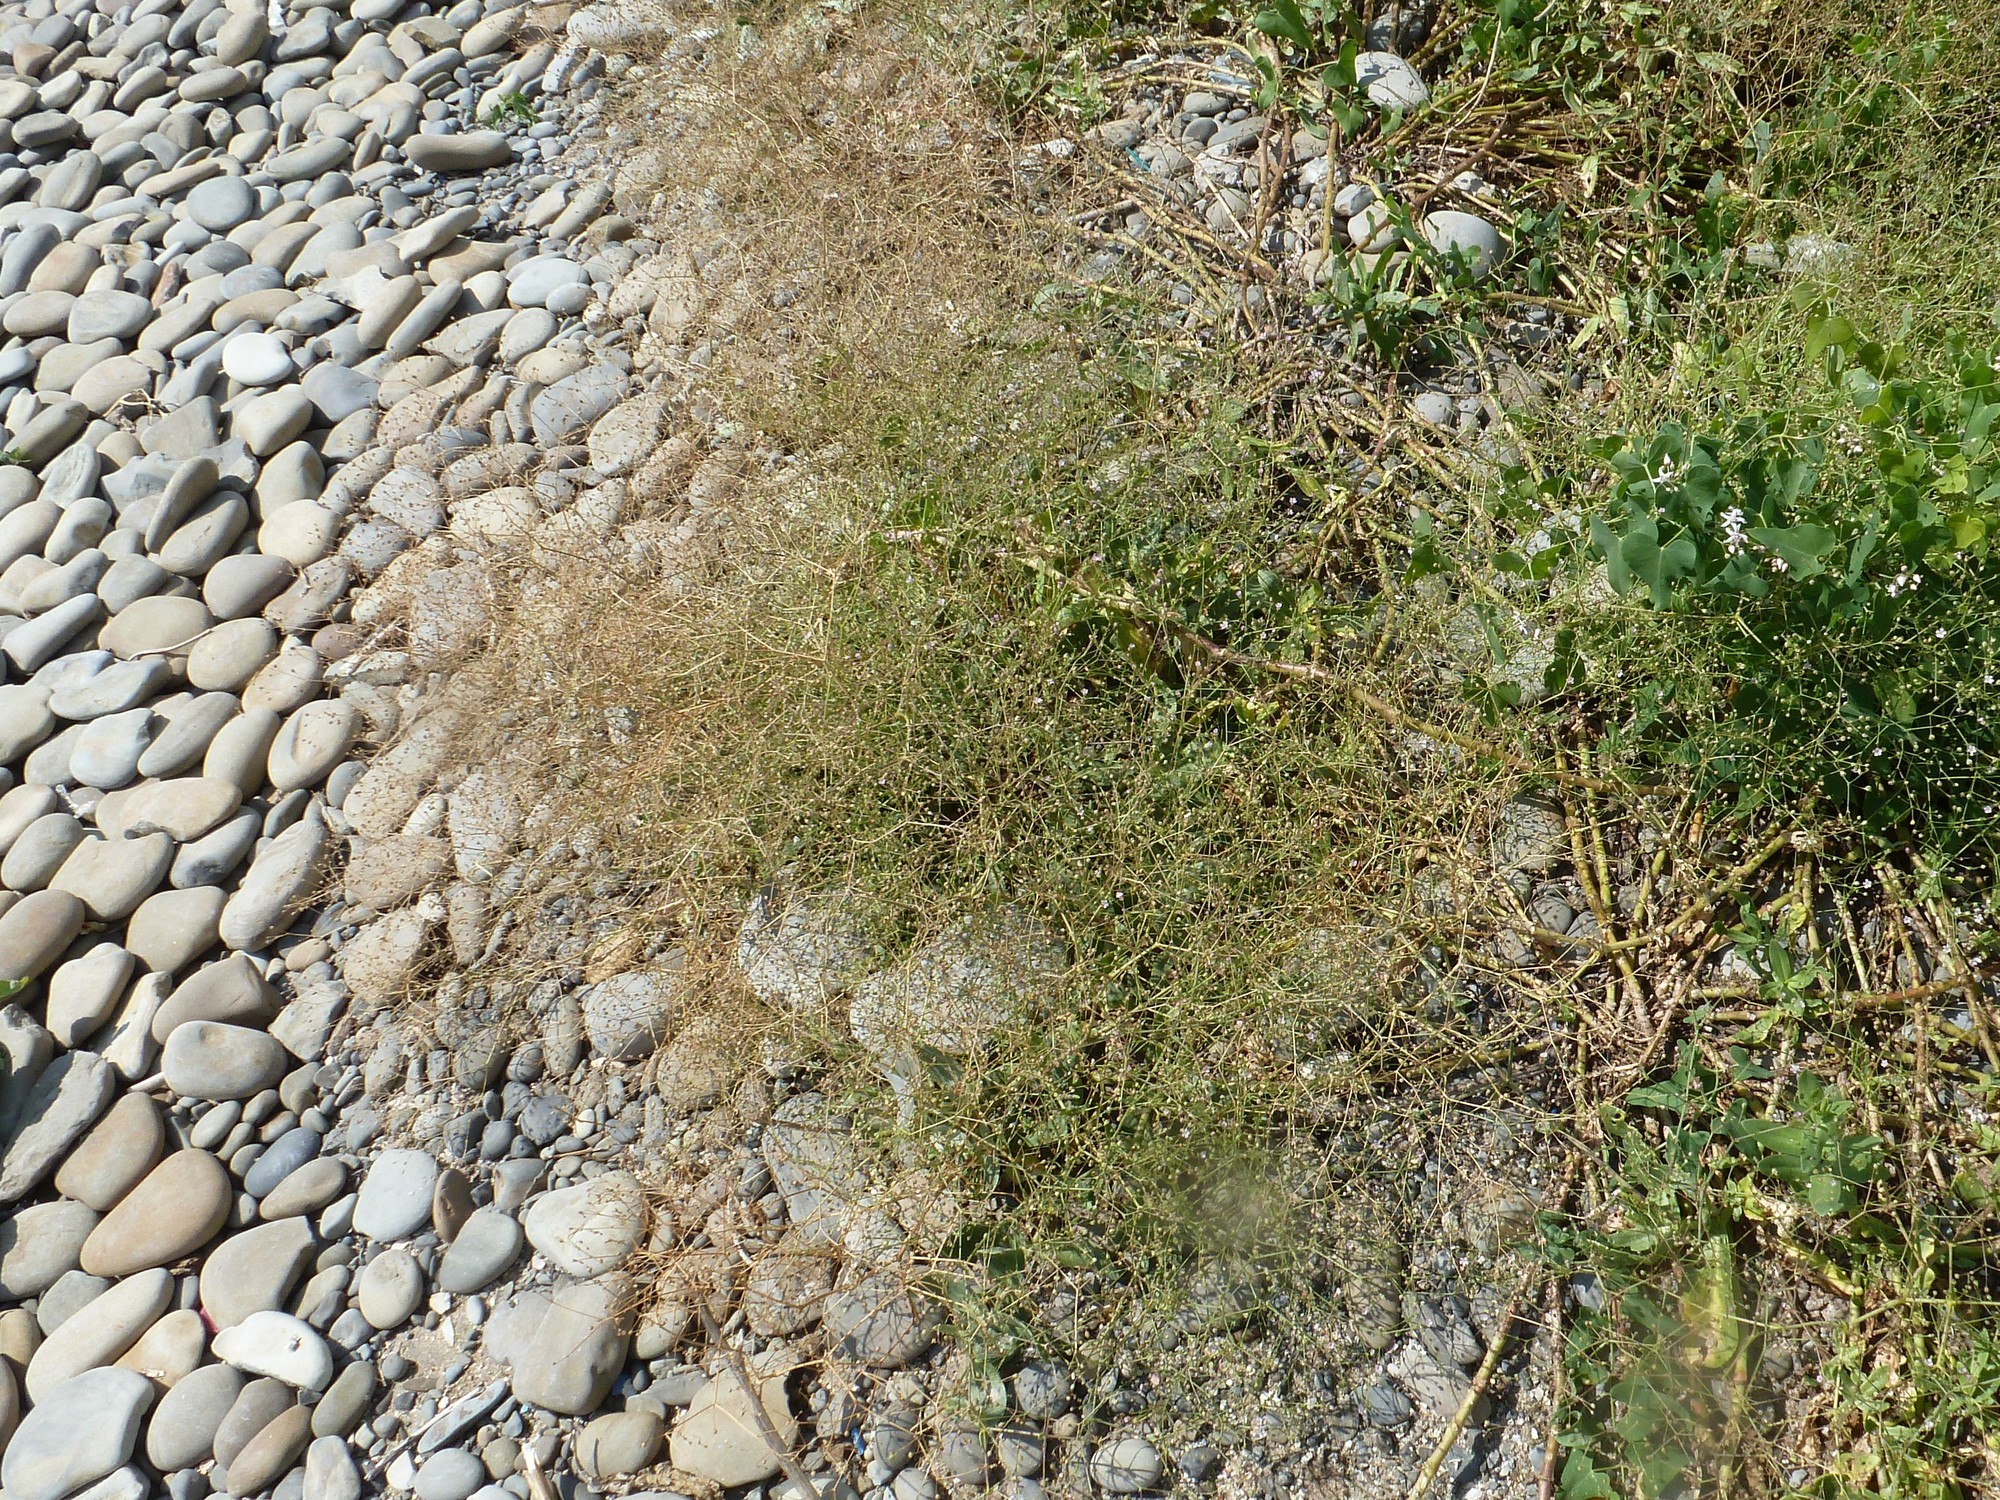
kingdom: Plantae
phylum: Tracheophyta
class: Magnoliopsida
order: Caryophyllales
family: Caryophyllaceae
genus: Gypsophila
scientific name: Gypsophila perfoliata
